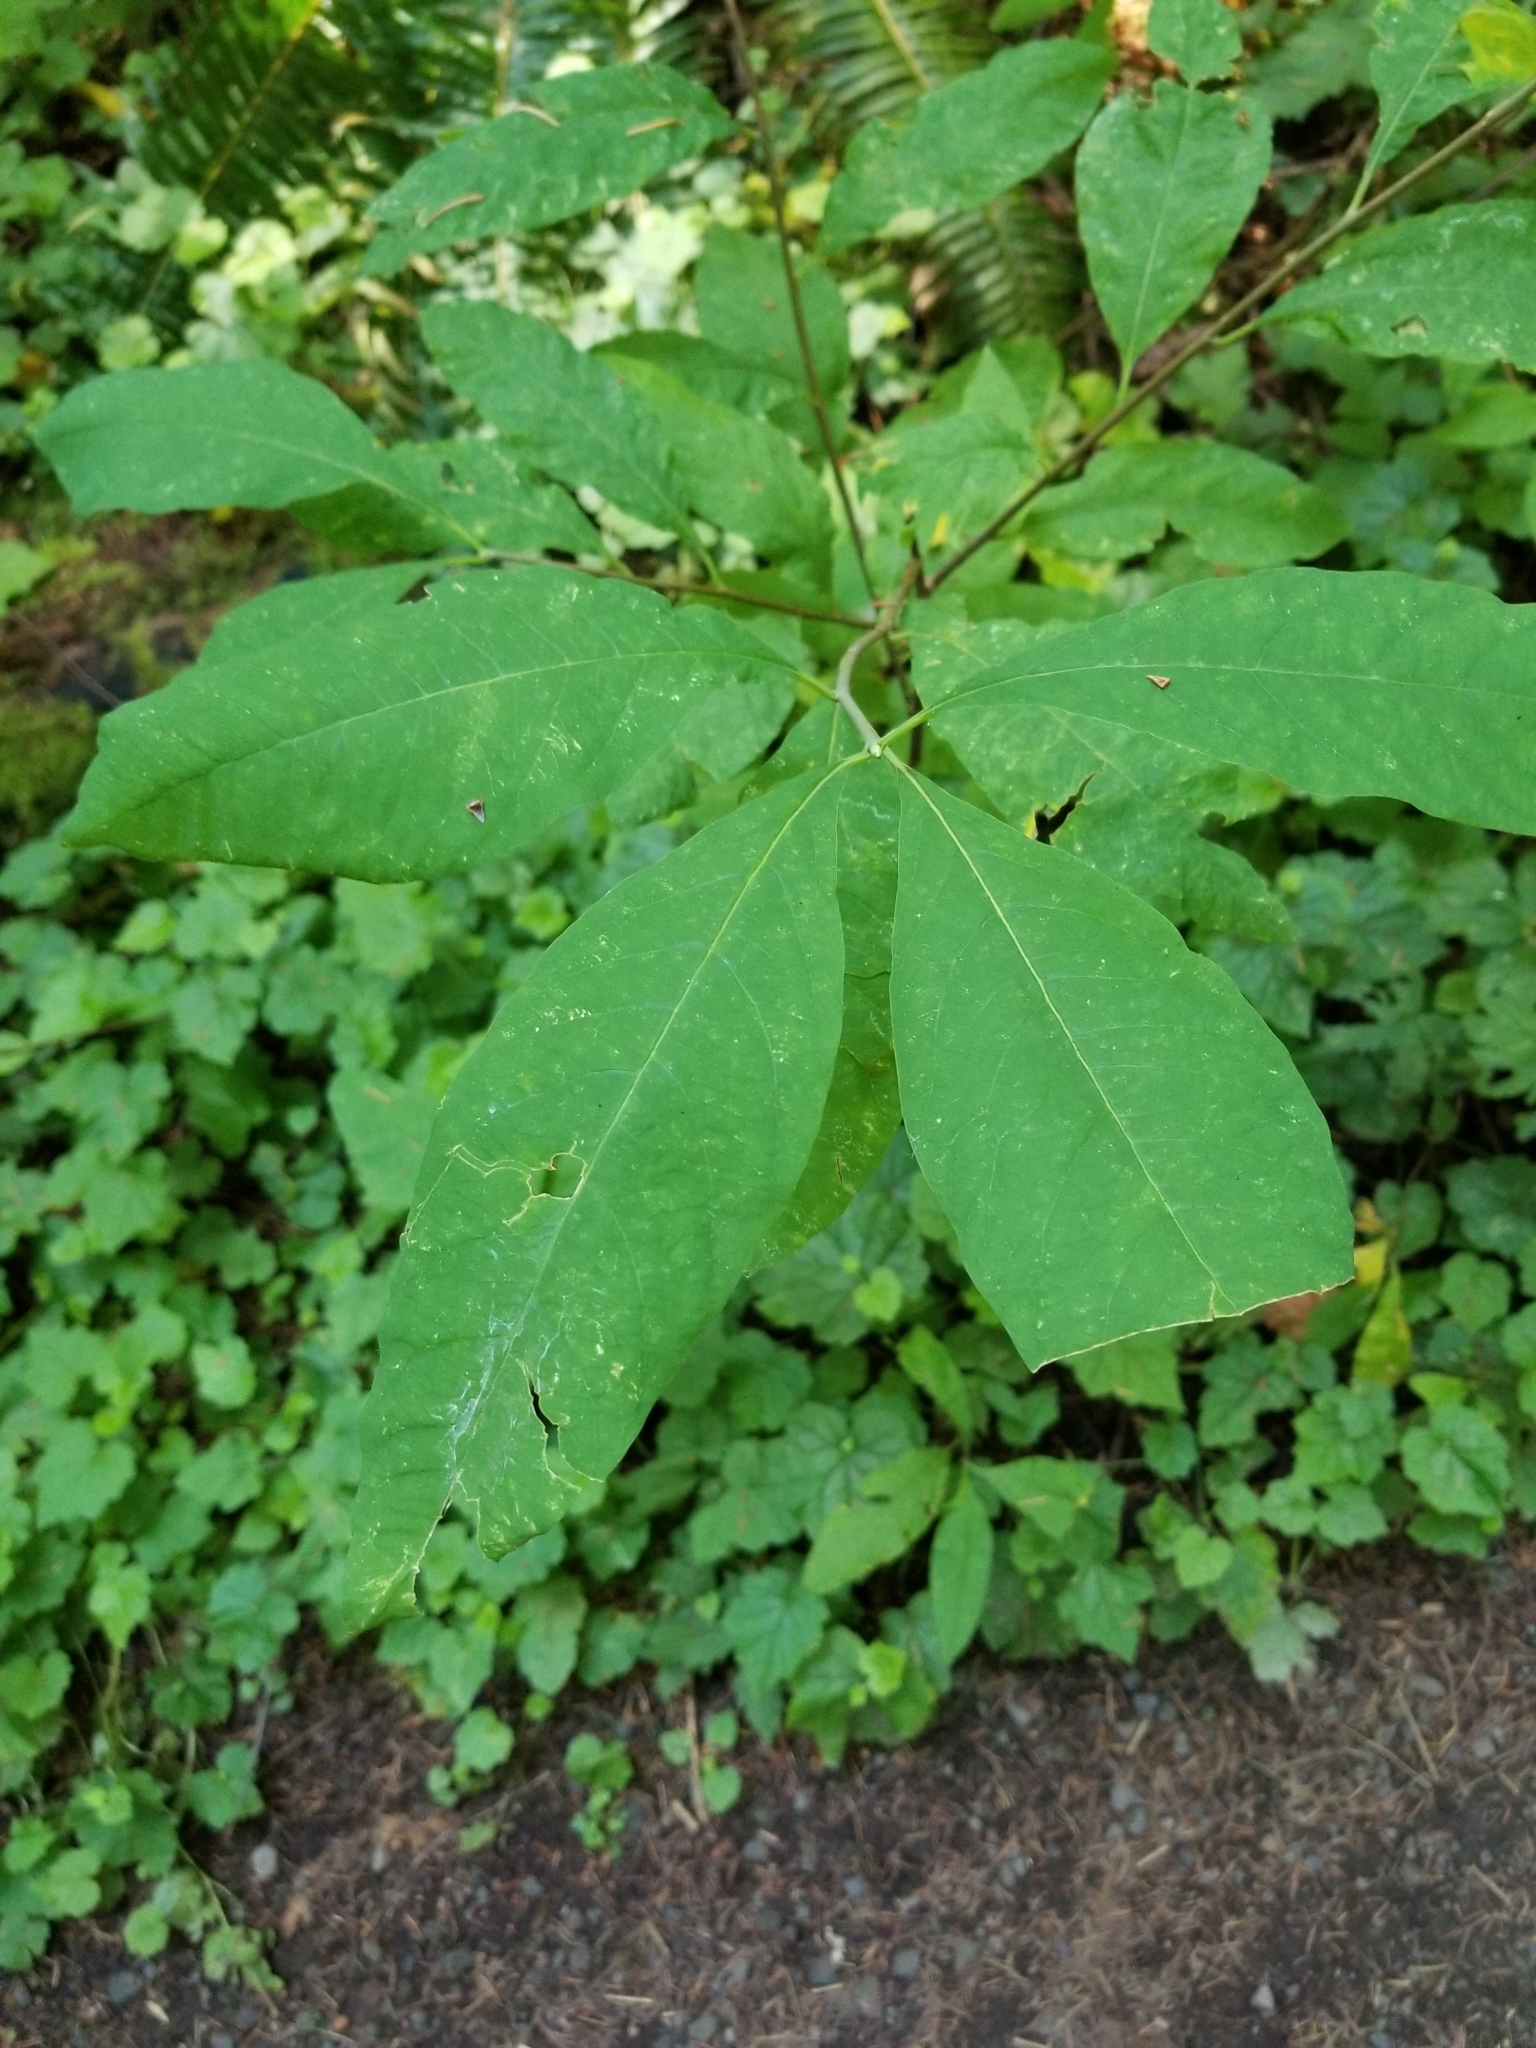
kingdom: Plantae
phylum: Tracheophyta
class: Magnoliopsida
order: Rosales
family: Rosaceae
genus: Oemleria
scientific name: Oemleria cerasiformis
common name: Osoberry
